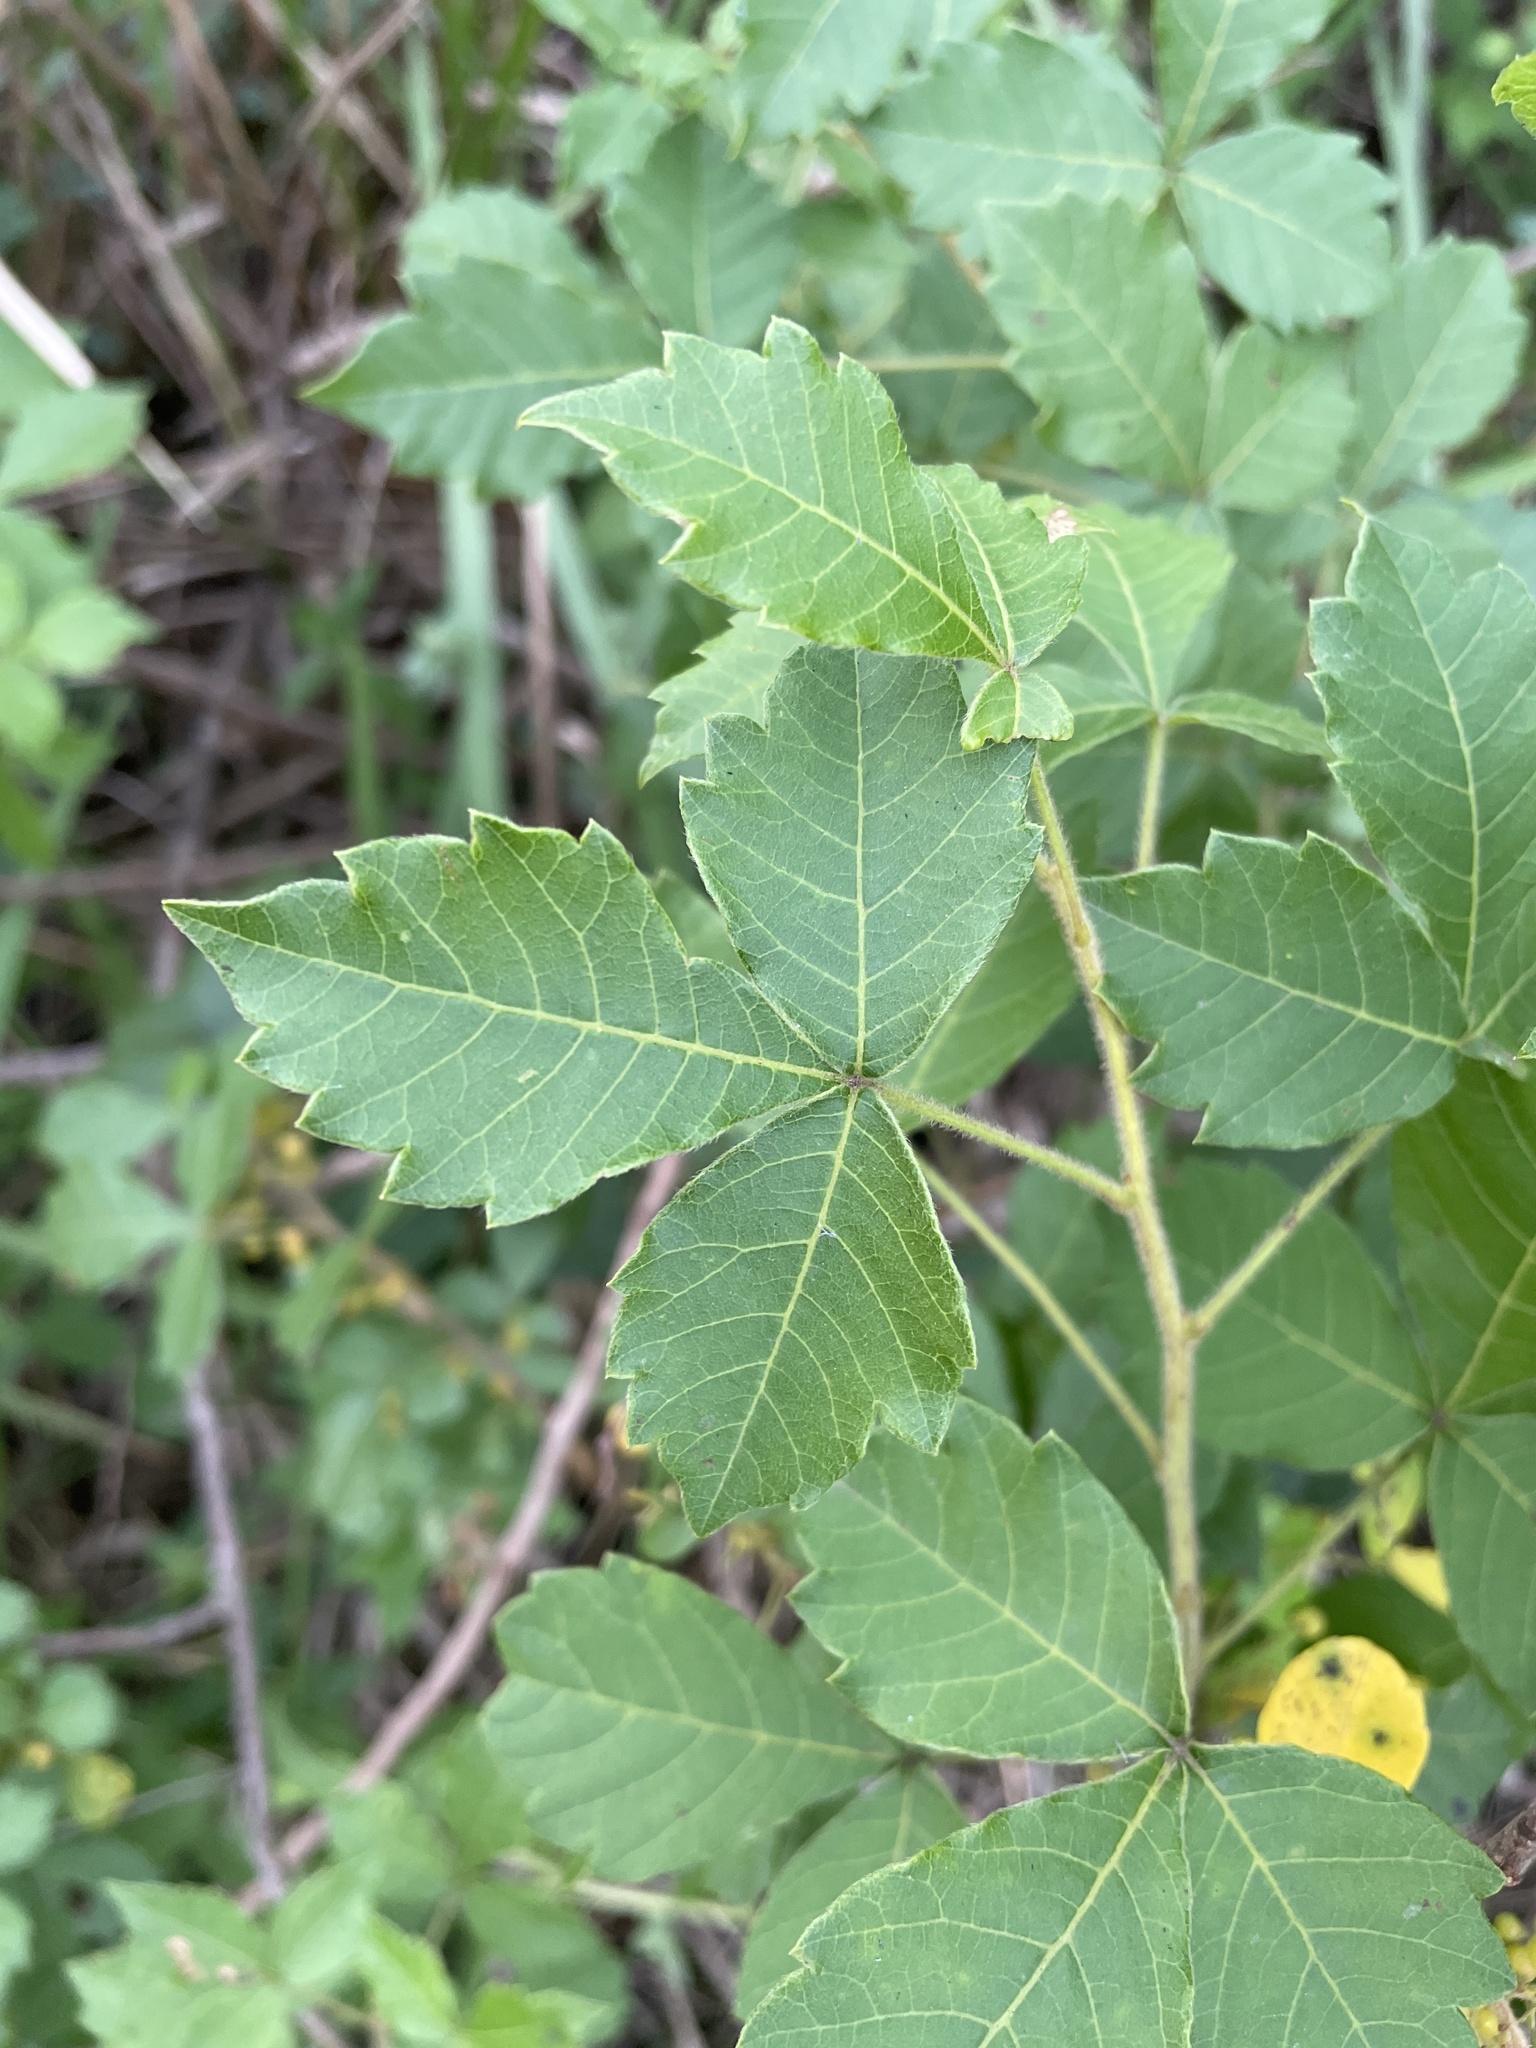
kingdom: Plantae
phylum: Tracheophyta
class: Magnoliopsida
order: Sapindales
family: Anacardiaceae
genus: Searsia
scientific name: Searsia dentata
